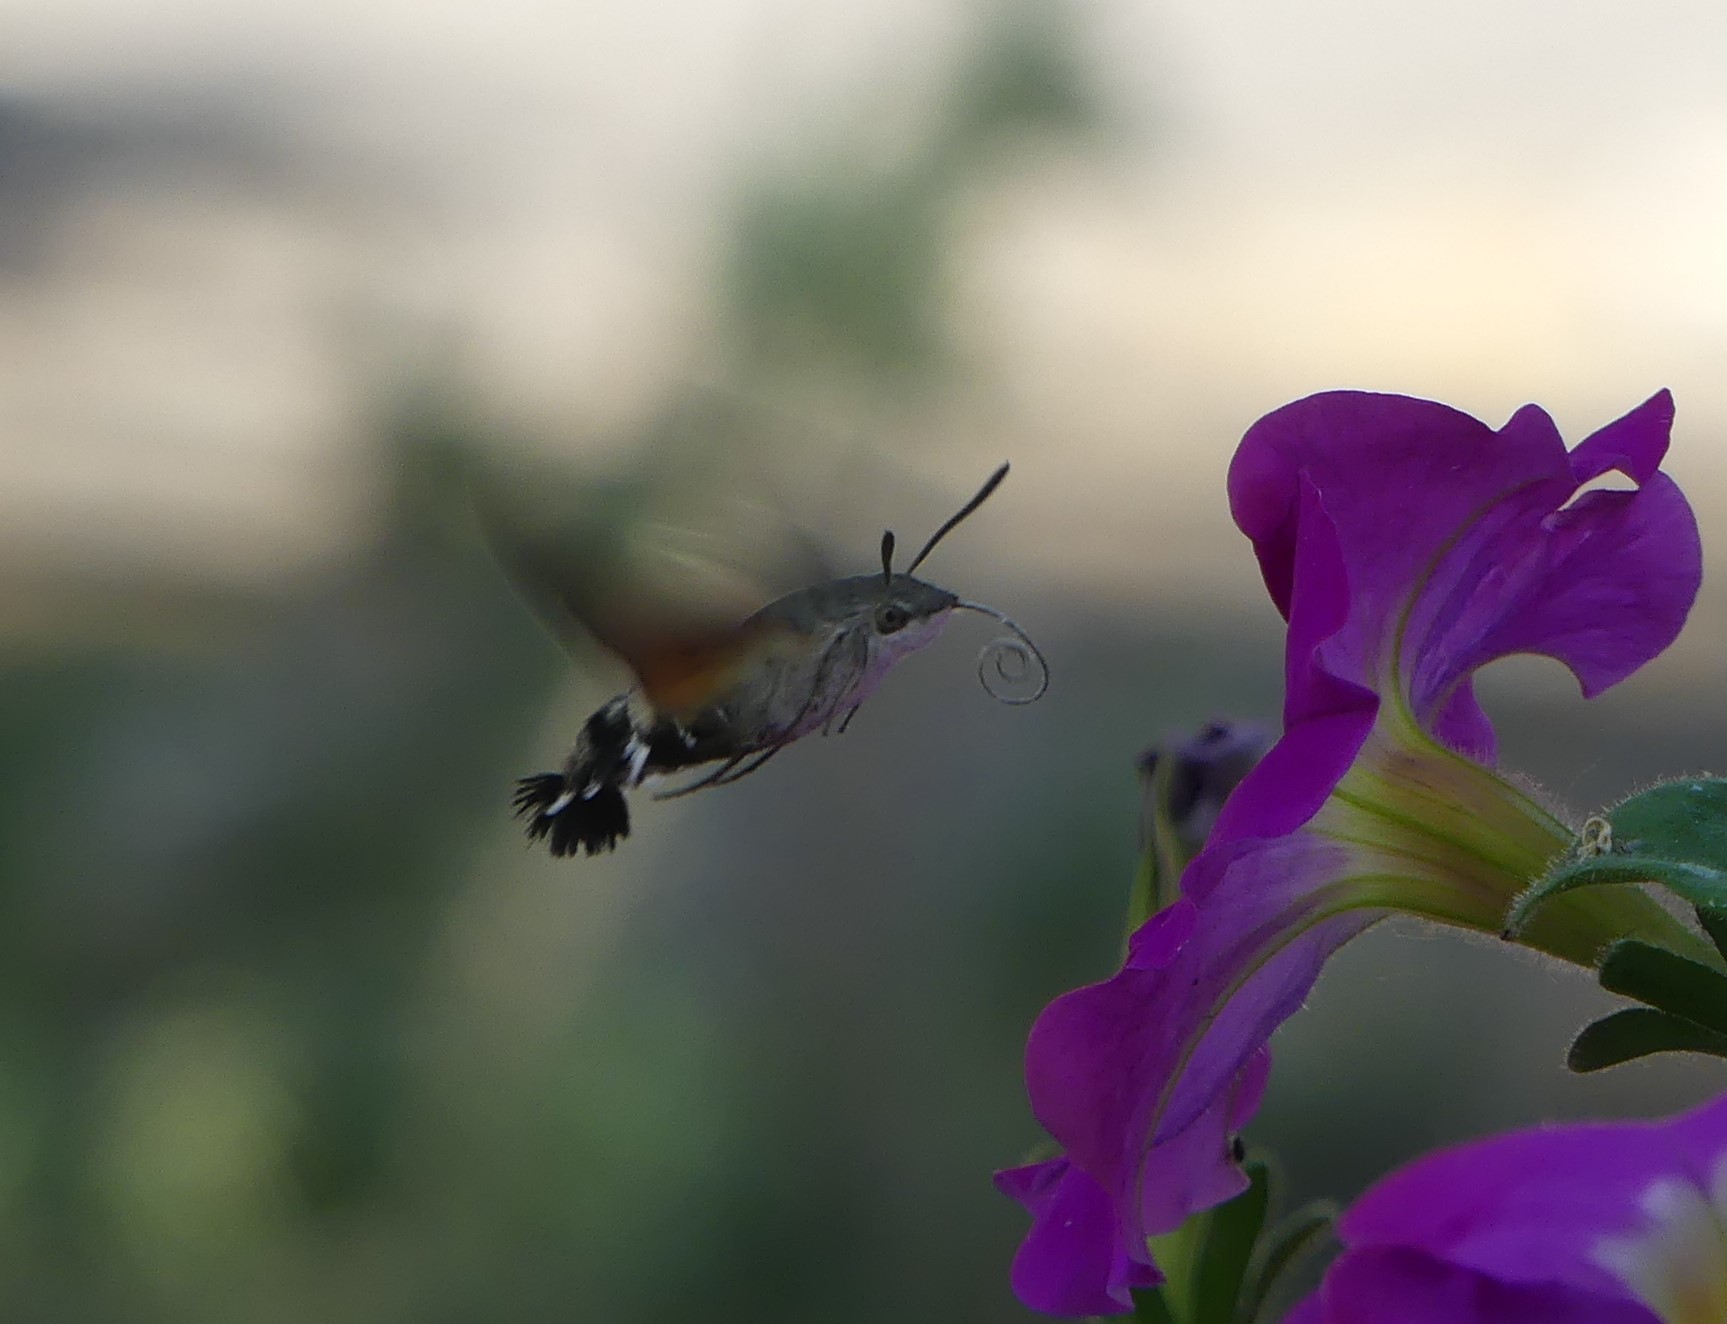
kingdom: Animalia
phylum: Arthropoda
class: Insecta
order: Lepidoptera
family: Sphingidae
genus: Macroglossum
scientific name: Macroglossum stellatarum
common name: Humming-bird hawk-moth
